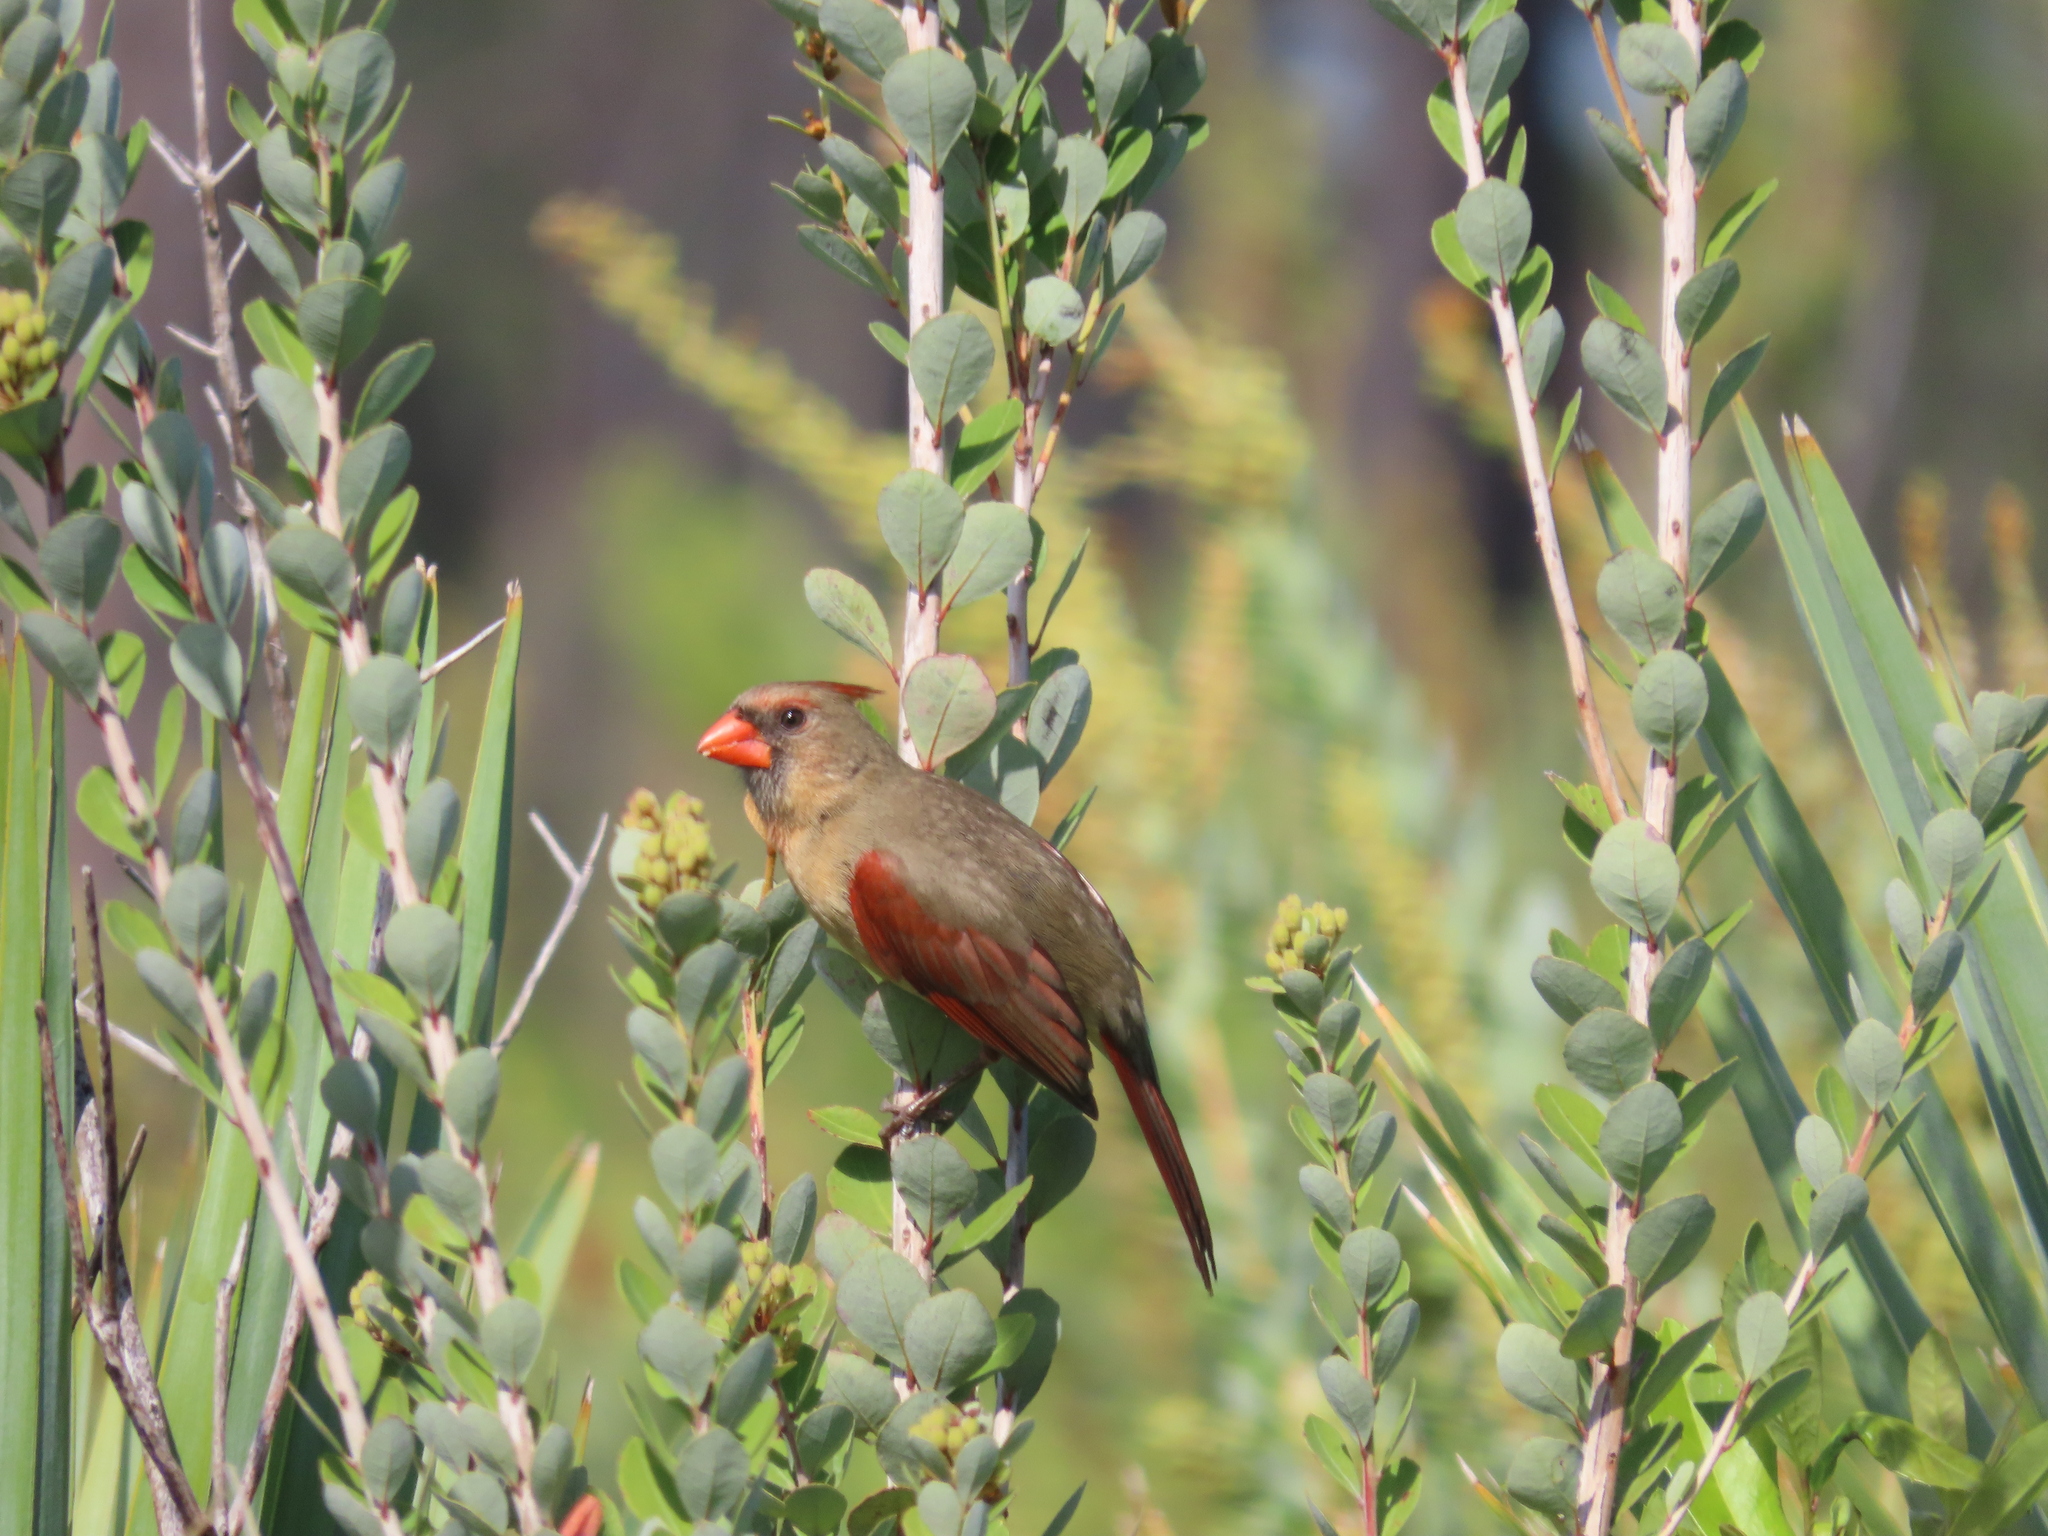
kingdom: Animalia
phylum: Chordata
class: Aves
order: Passeriformes
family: Cardinalidae
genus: Cardinalis
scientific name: Cardinalis cardinalis
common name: Northern cardinal
